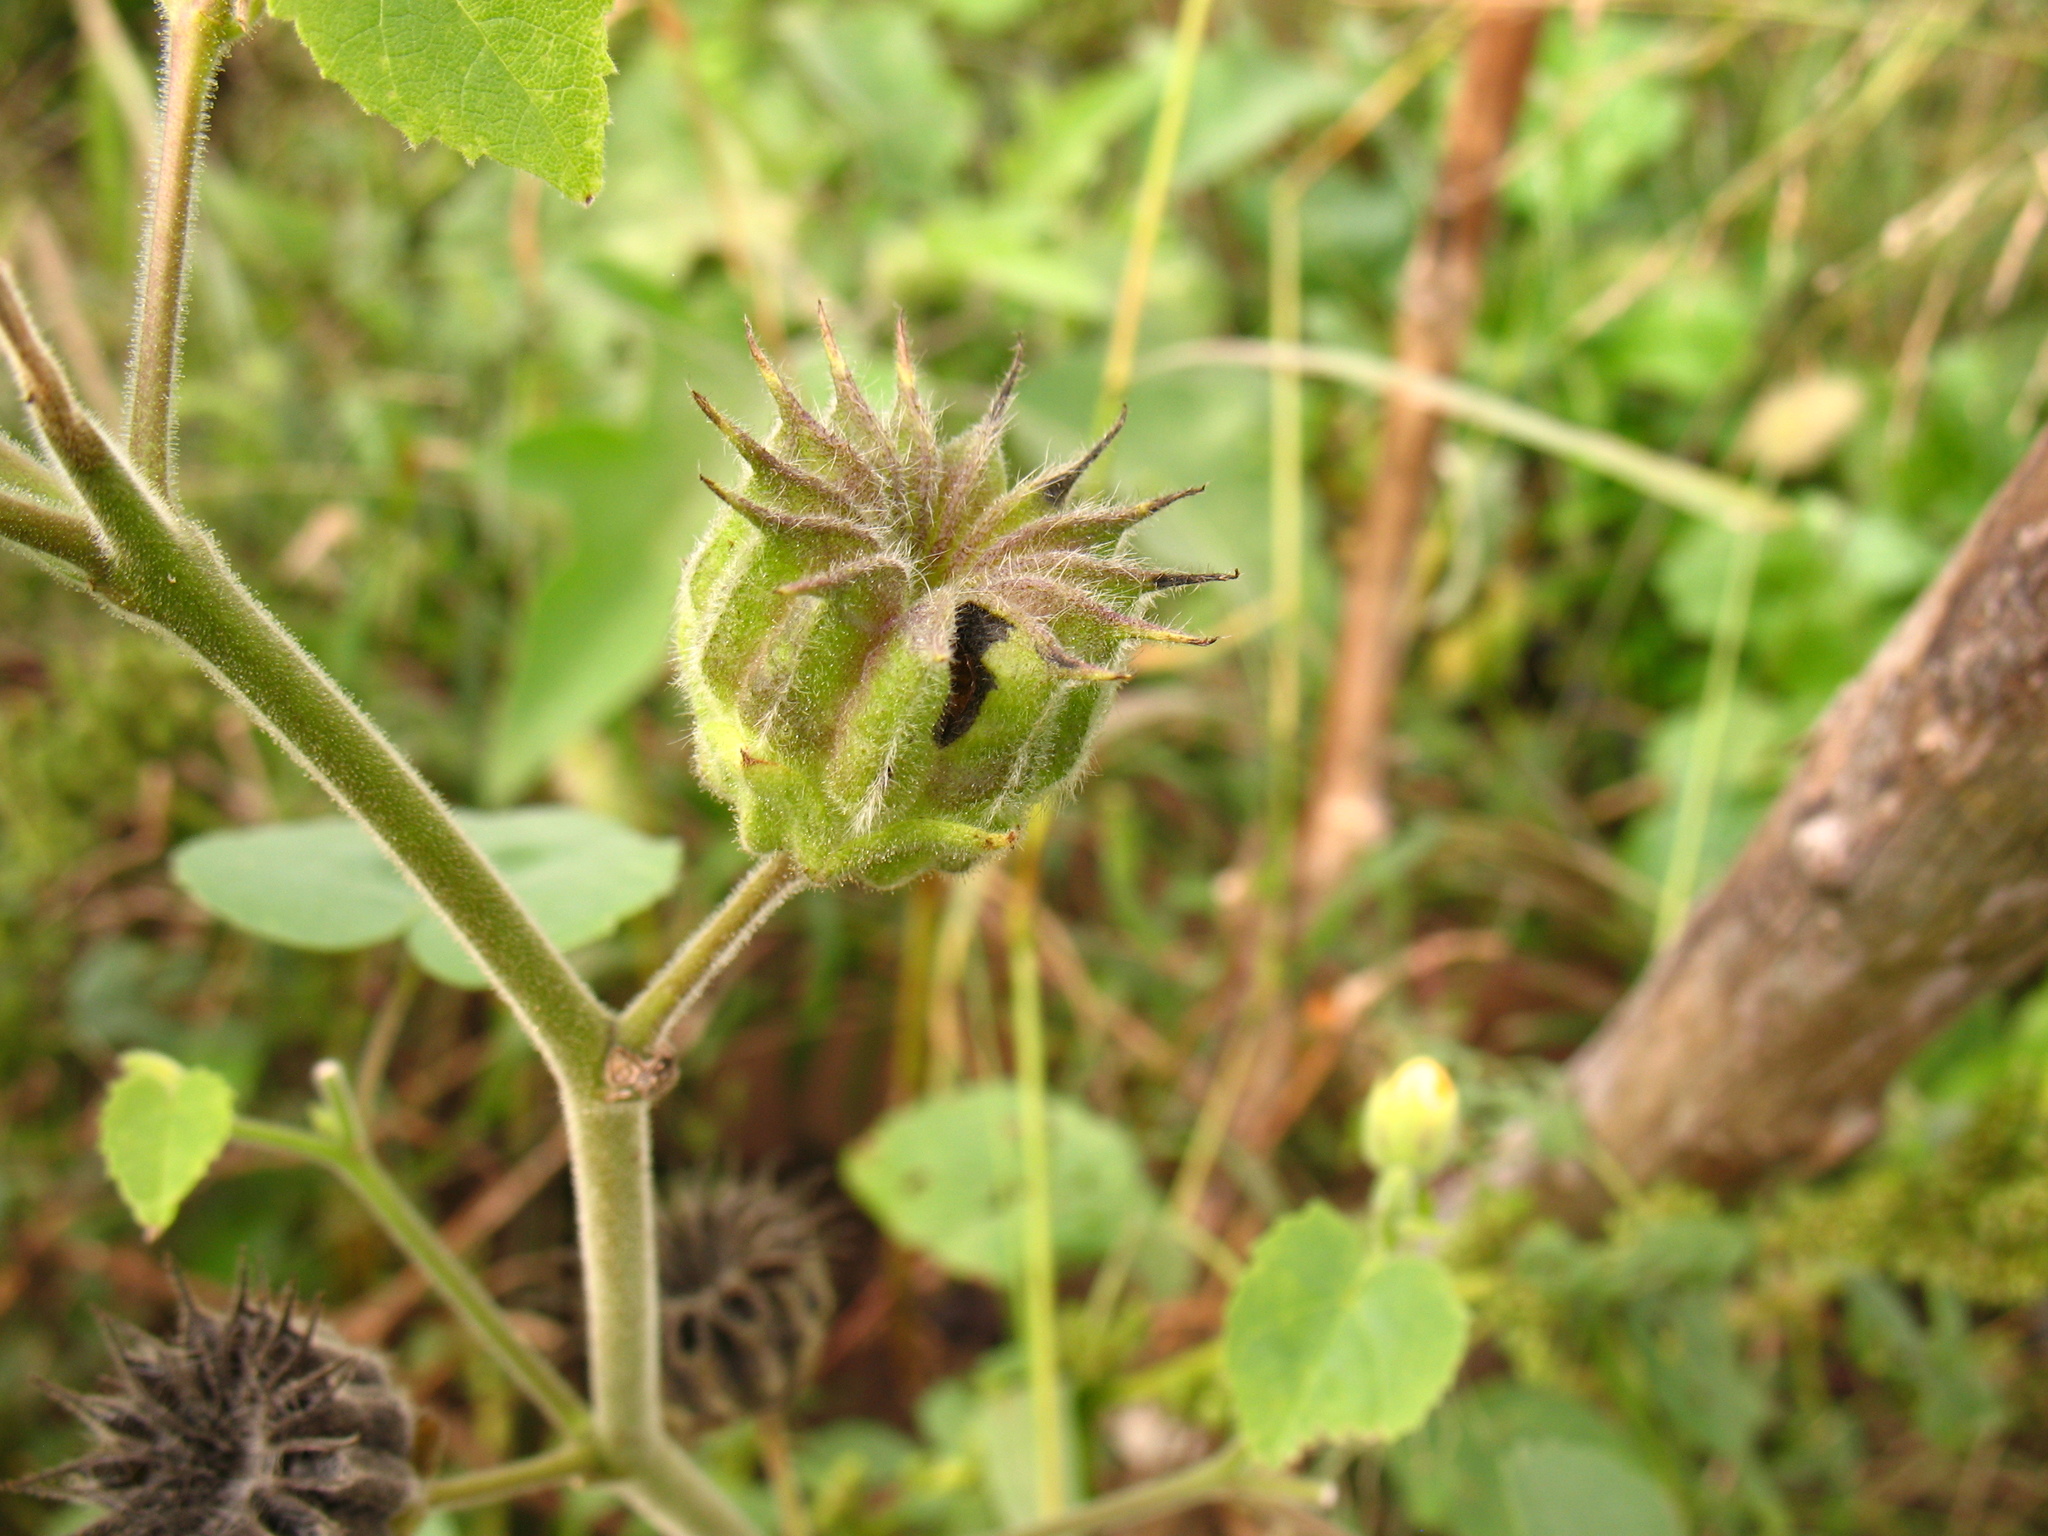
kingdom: Plantae
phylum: Tracheophyta
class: Magnoliopsida
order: Malvales
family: Malvaceae
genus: Abutilon
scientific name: Abutilon theophrasti
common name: Velvetleaf
